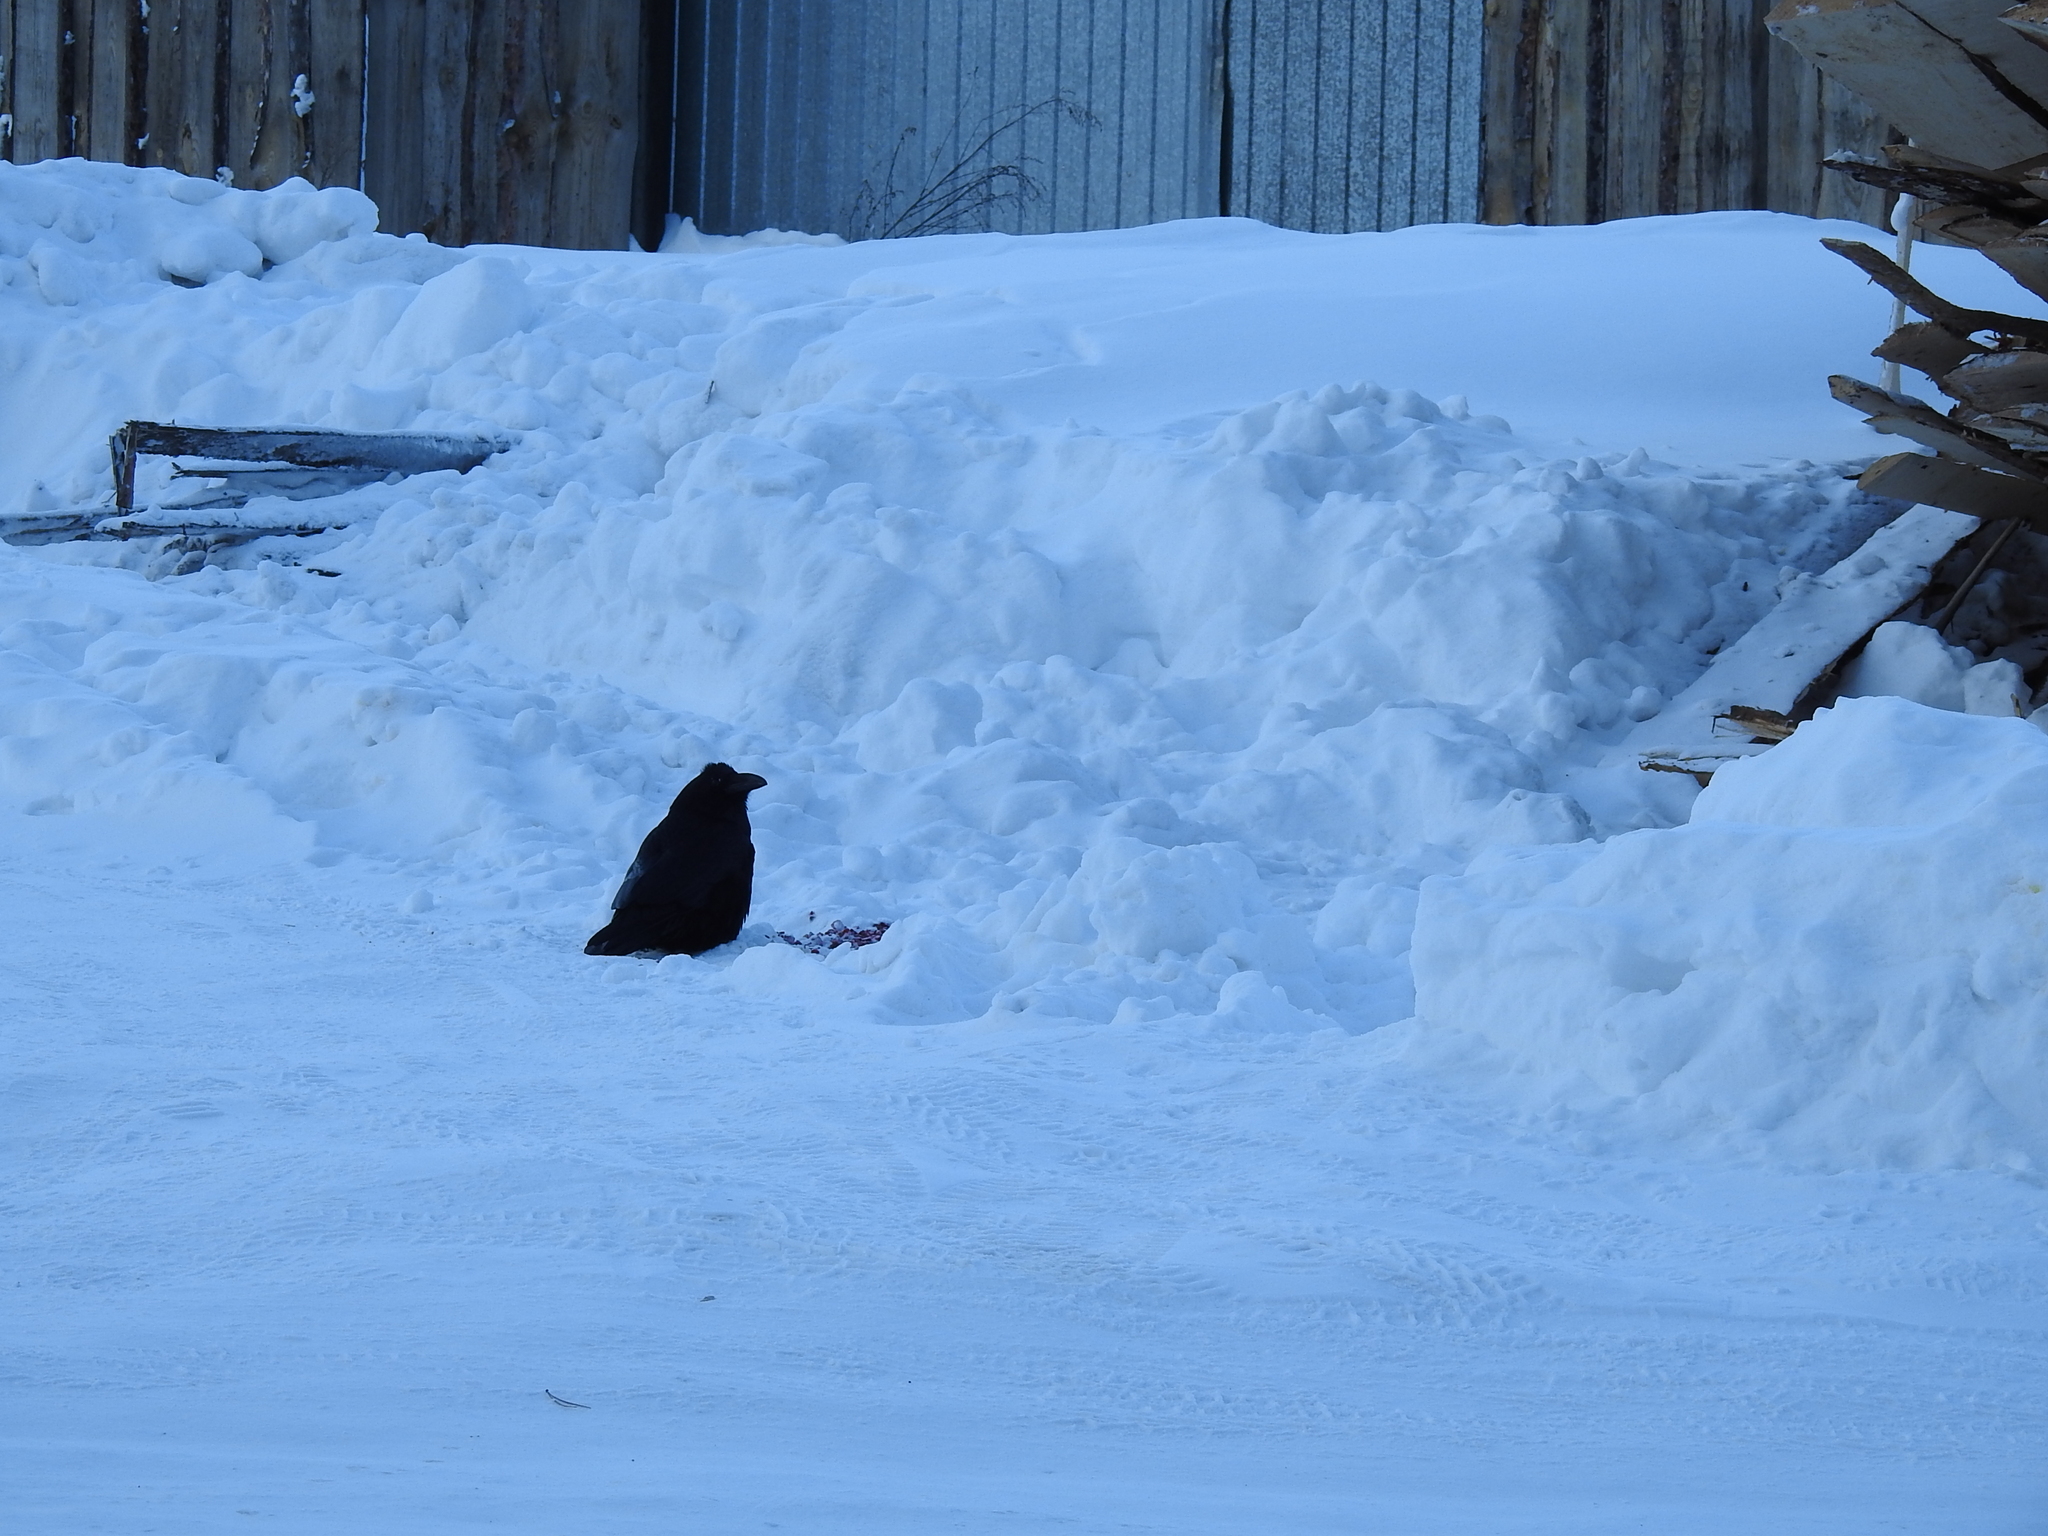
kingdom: Animalia
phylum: Chordata
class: Aves
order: Passeriformes
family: Corvidae
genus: Corvus
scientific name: Corvus corax
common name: Common raven
